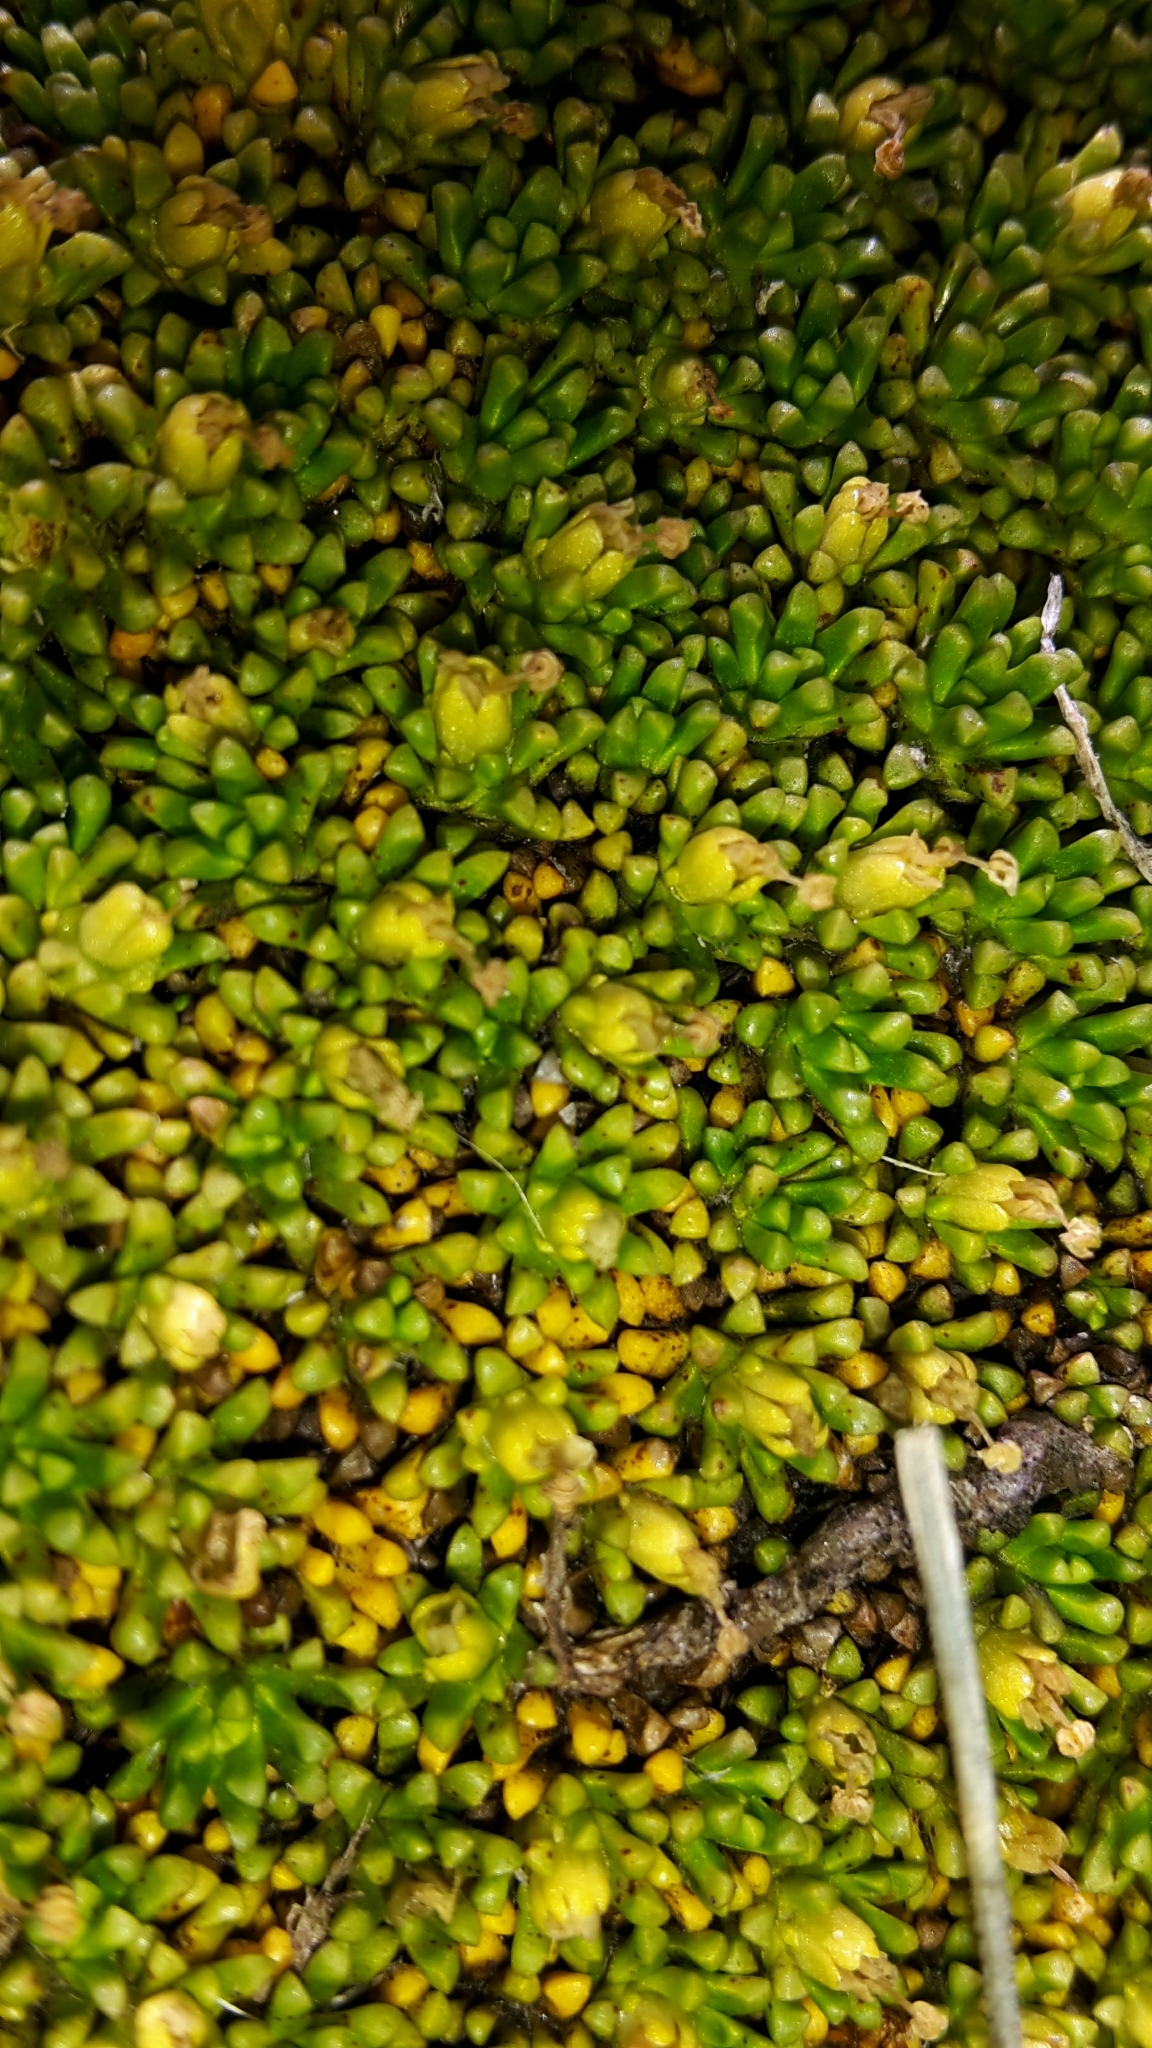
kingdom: Plantae
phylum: Tracheophyta
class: Magnoliopsida
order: Asterales
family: Stylidiaceae
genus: Phyllachne
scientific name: Phyllachne colensoi
